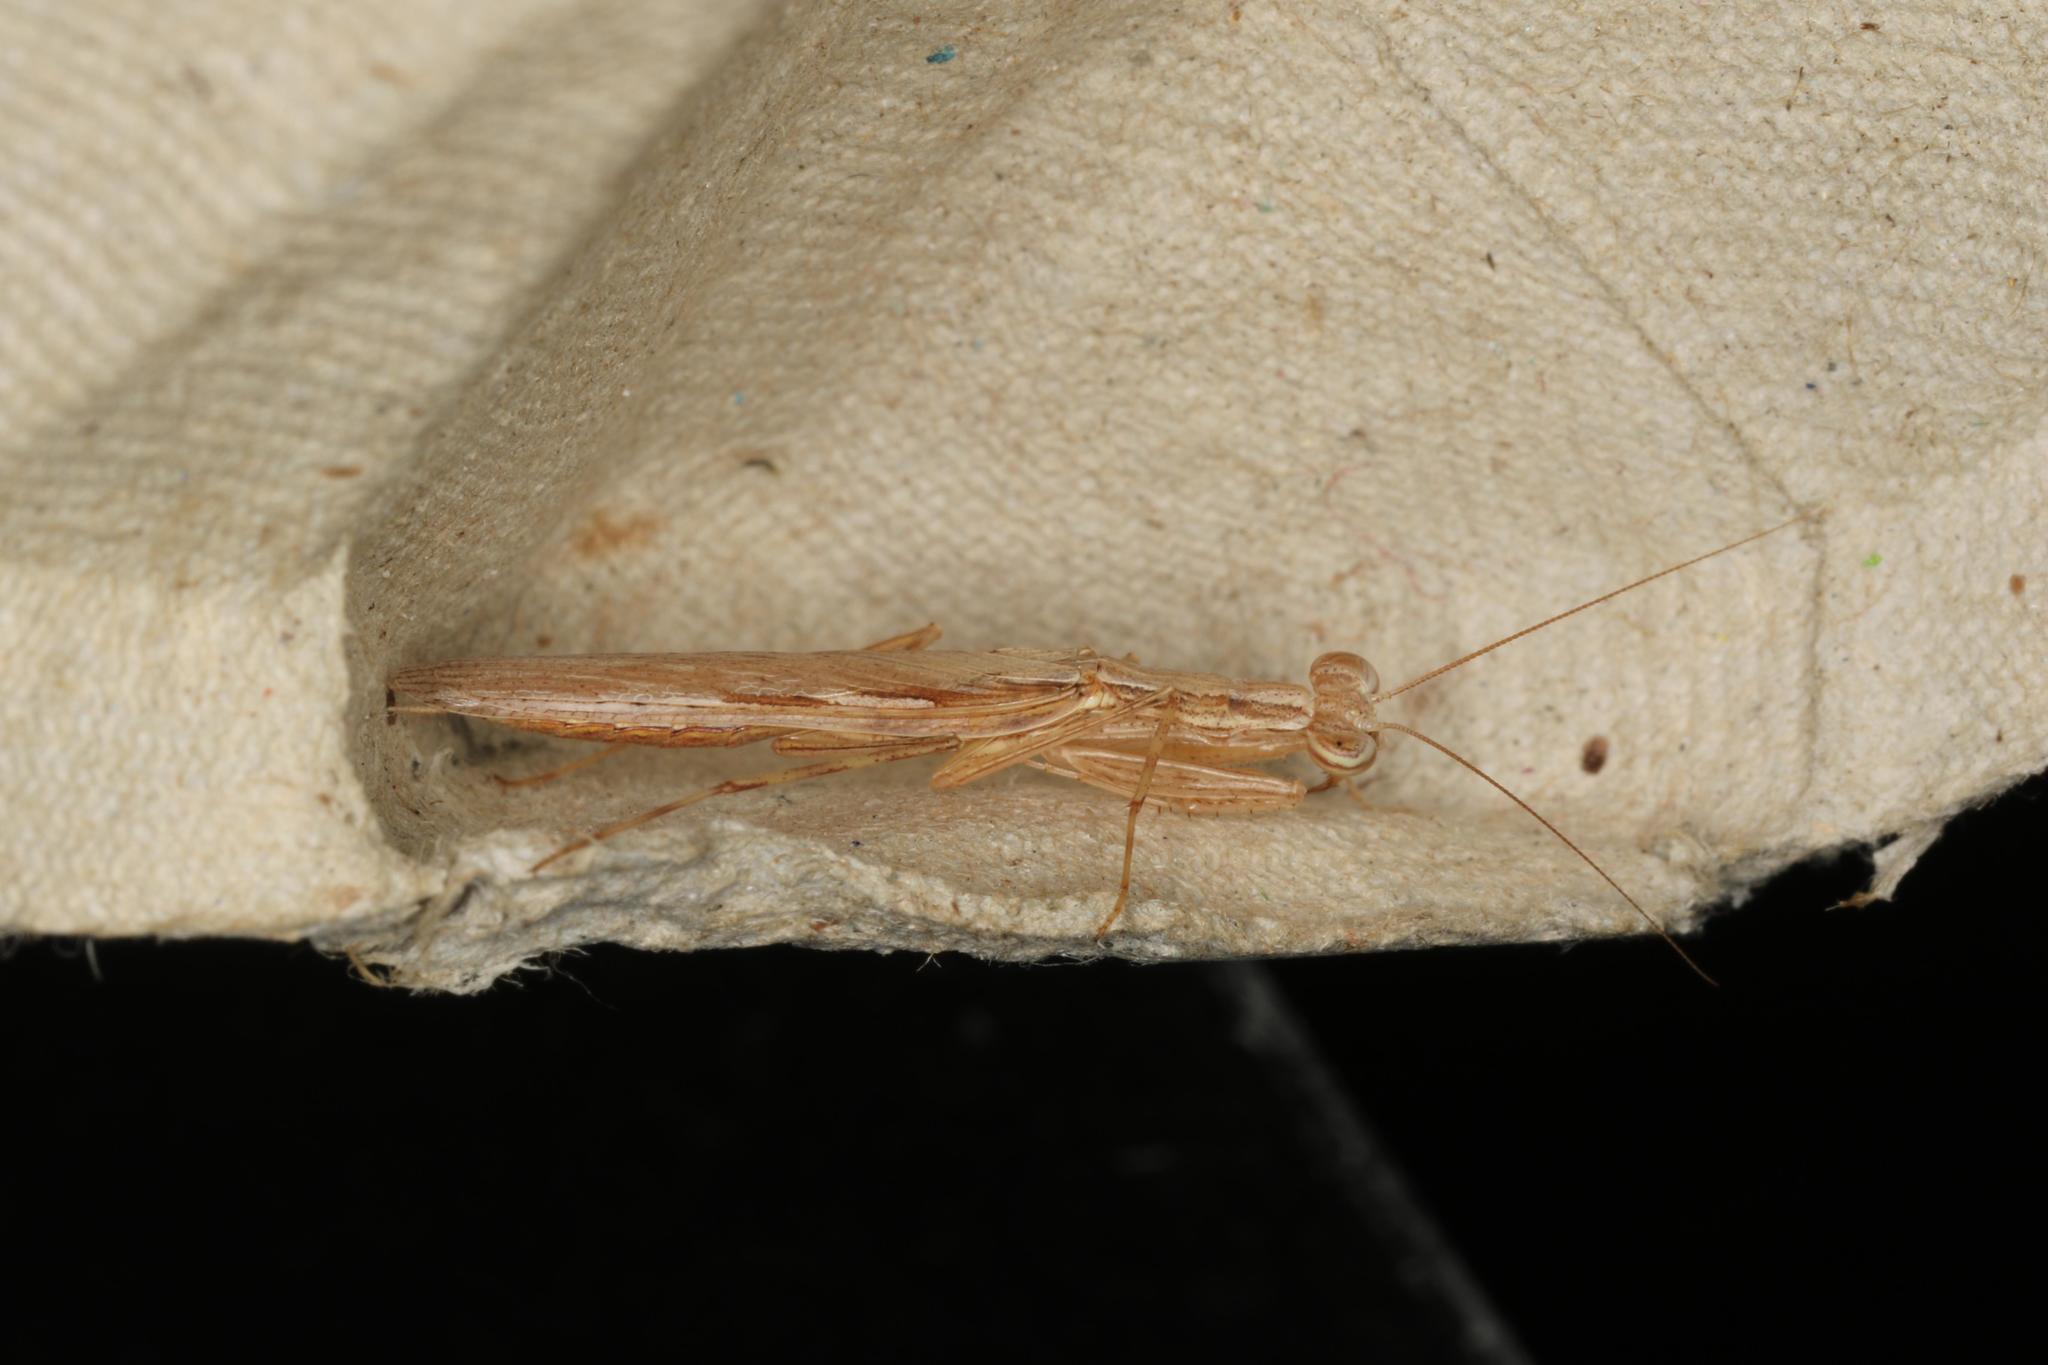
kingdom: Animalia
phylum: Arthropoda
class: Insecta
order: Mantodea
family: Nanomantidae
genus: Ima
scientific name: Ima fusca
